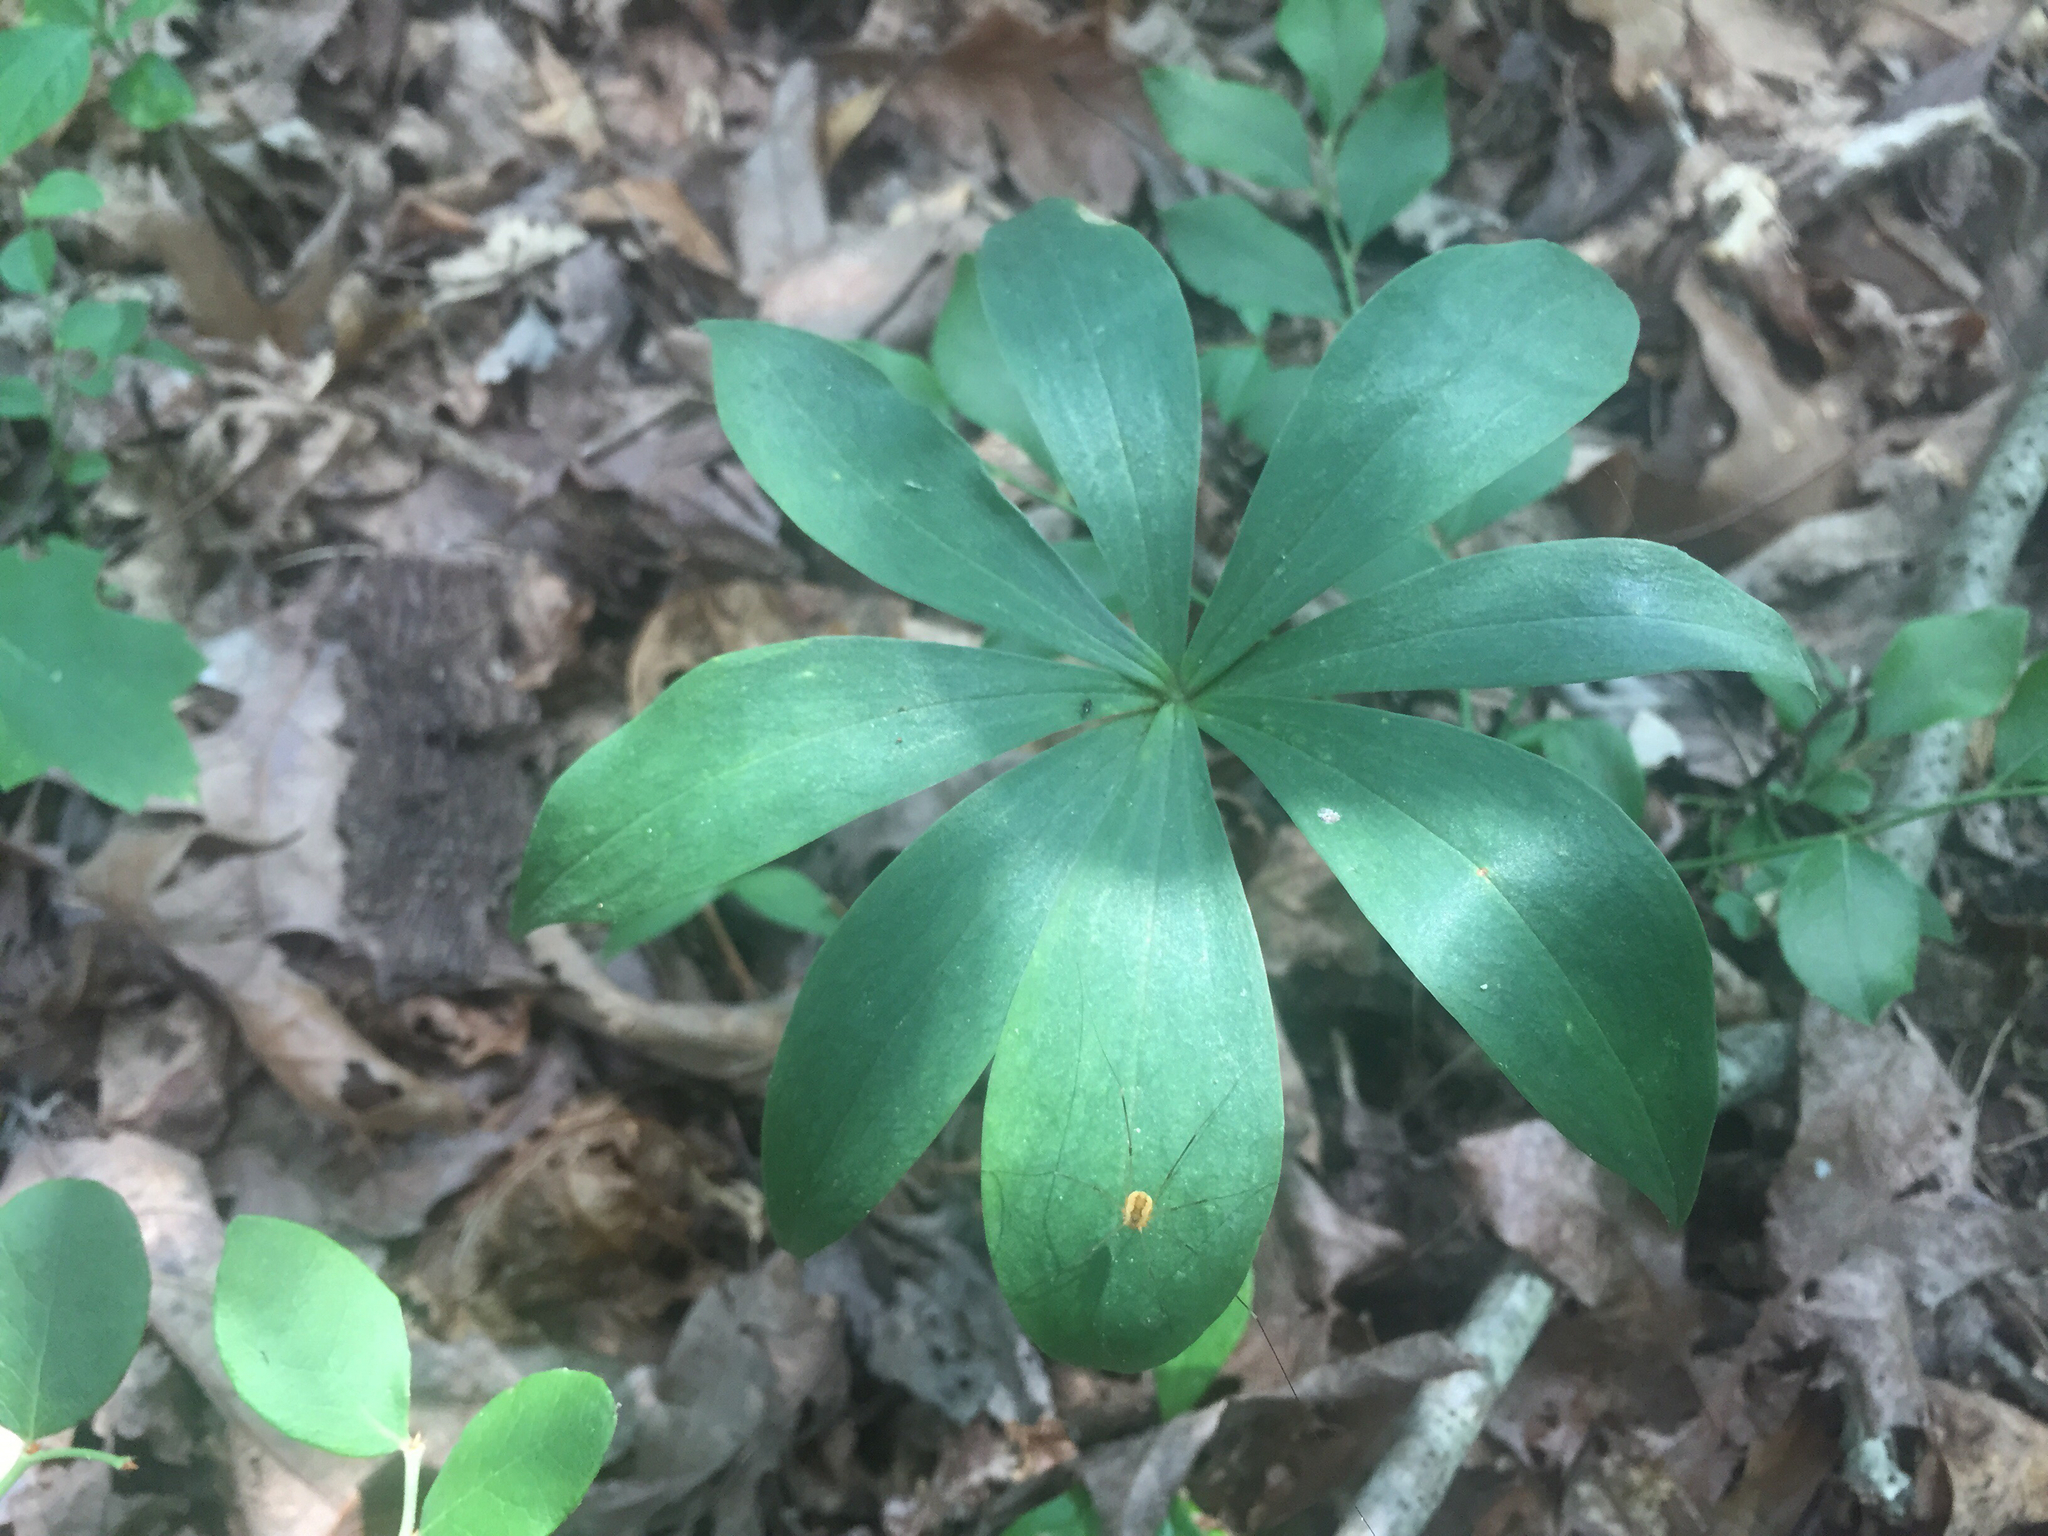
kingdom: Plantae
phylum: Tracheophyta
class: Liliopsida
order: Liliales
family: Liliaceae
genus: Medeola
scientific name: Medeola virginiana
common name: Indian cucumber-root
